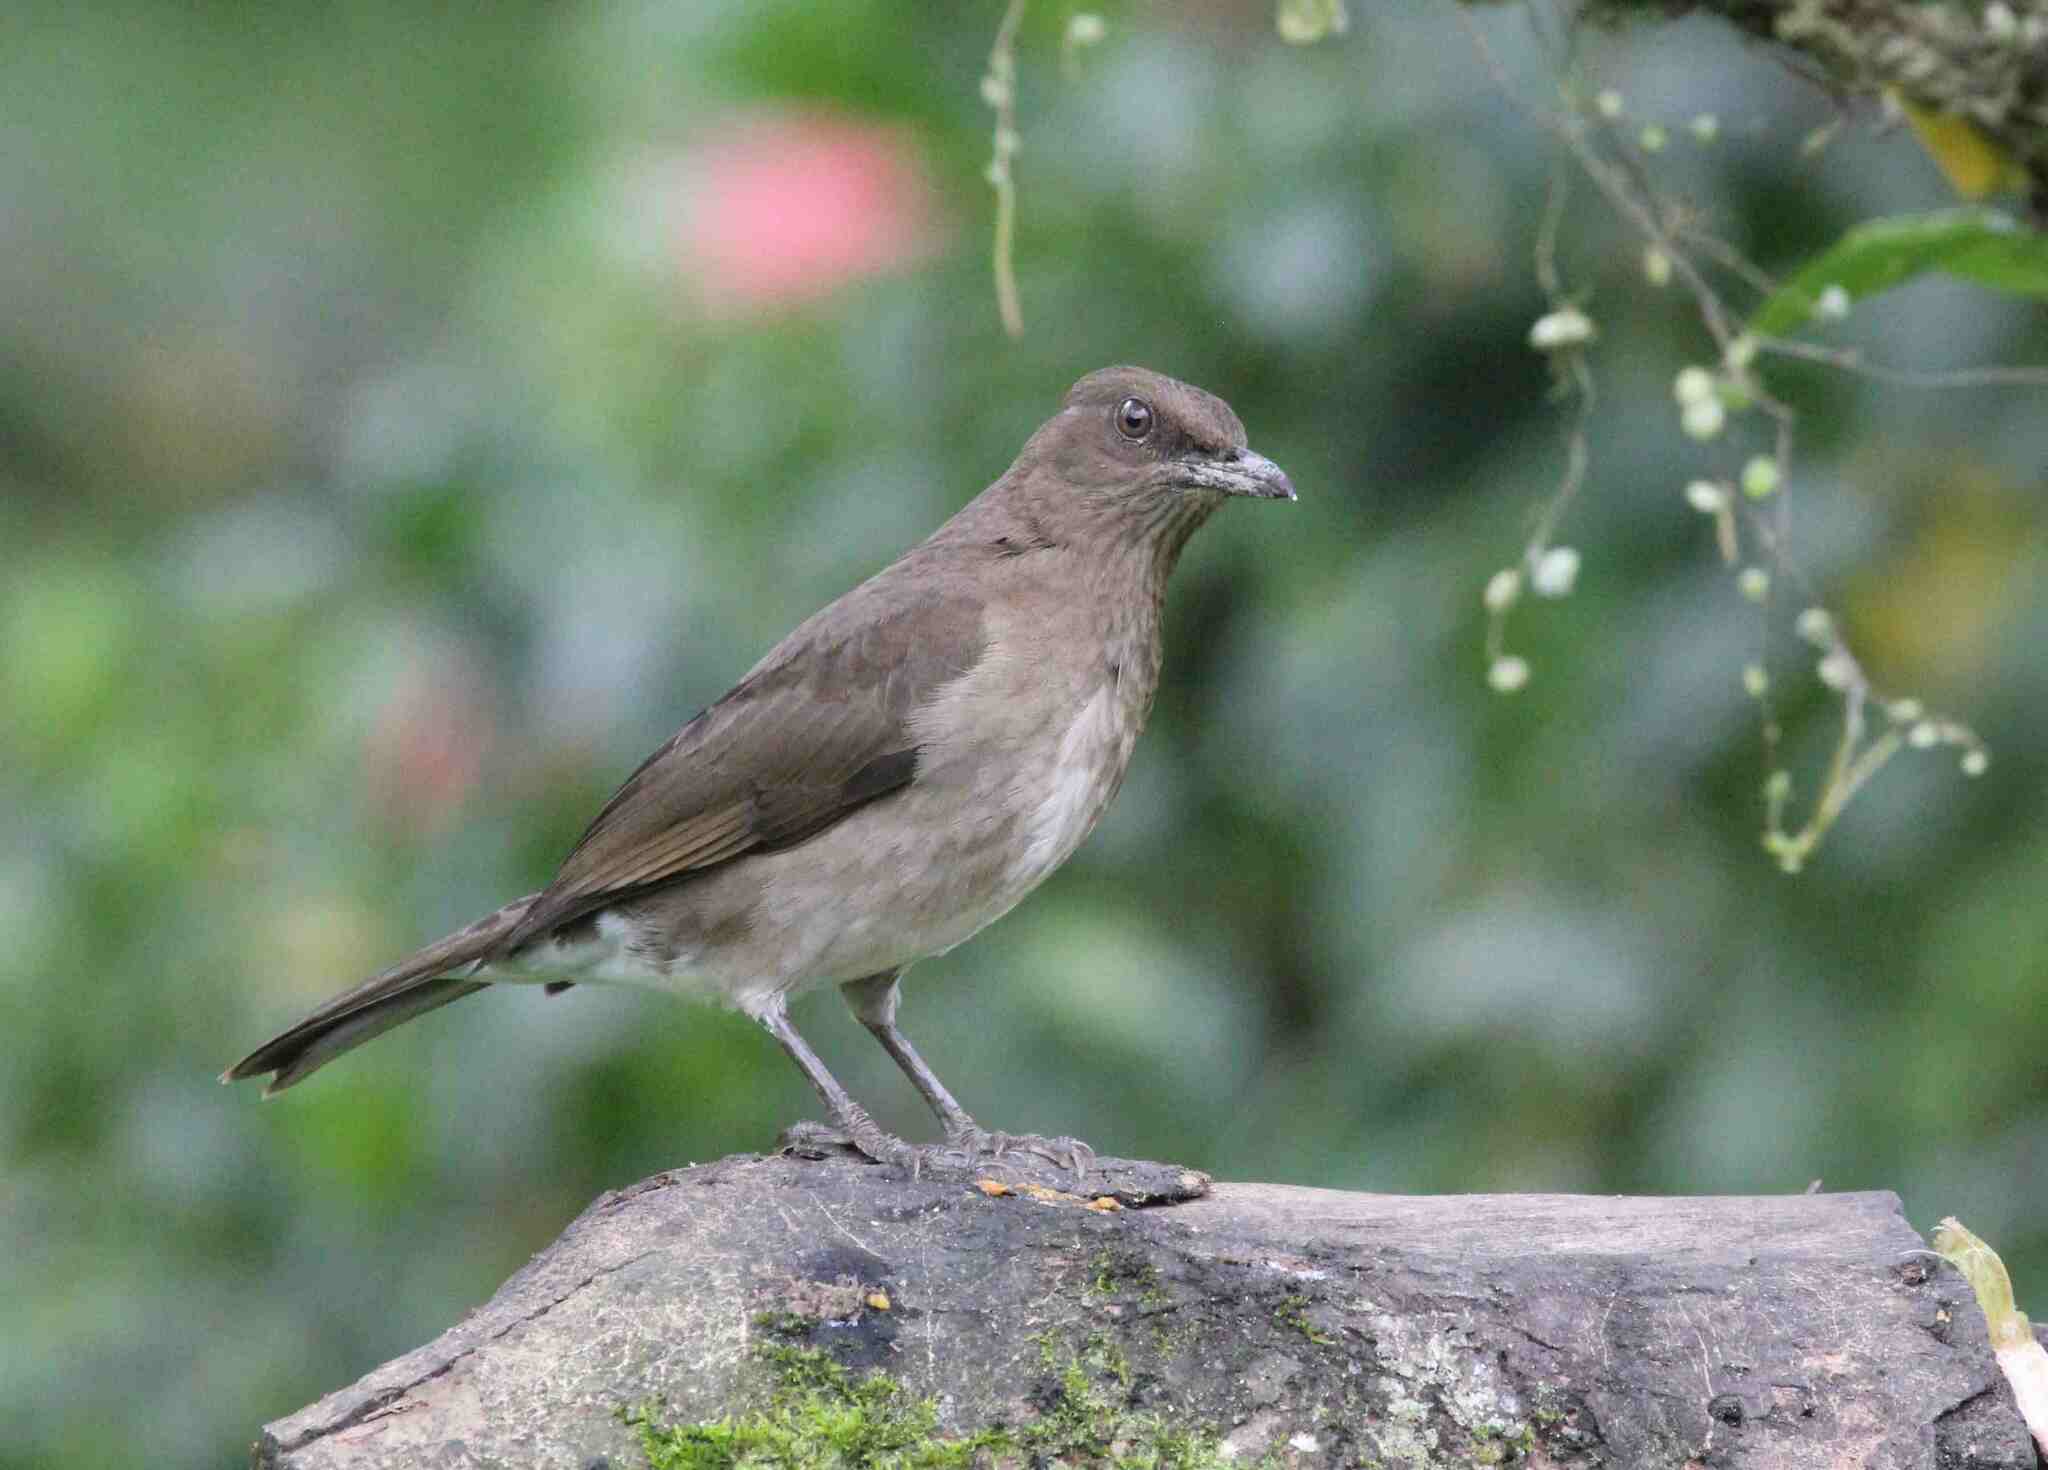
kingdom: Animalia
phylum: Chordata
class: Aves
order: Passeriformes
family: Turdidae
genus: Turdus
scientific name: Turdus ignobilis
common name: Black-billed thrush
